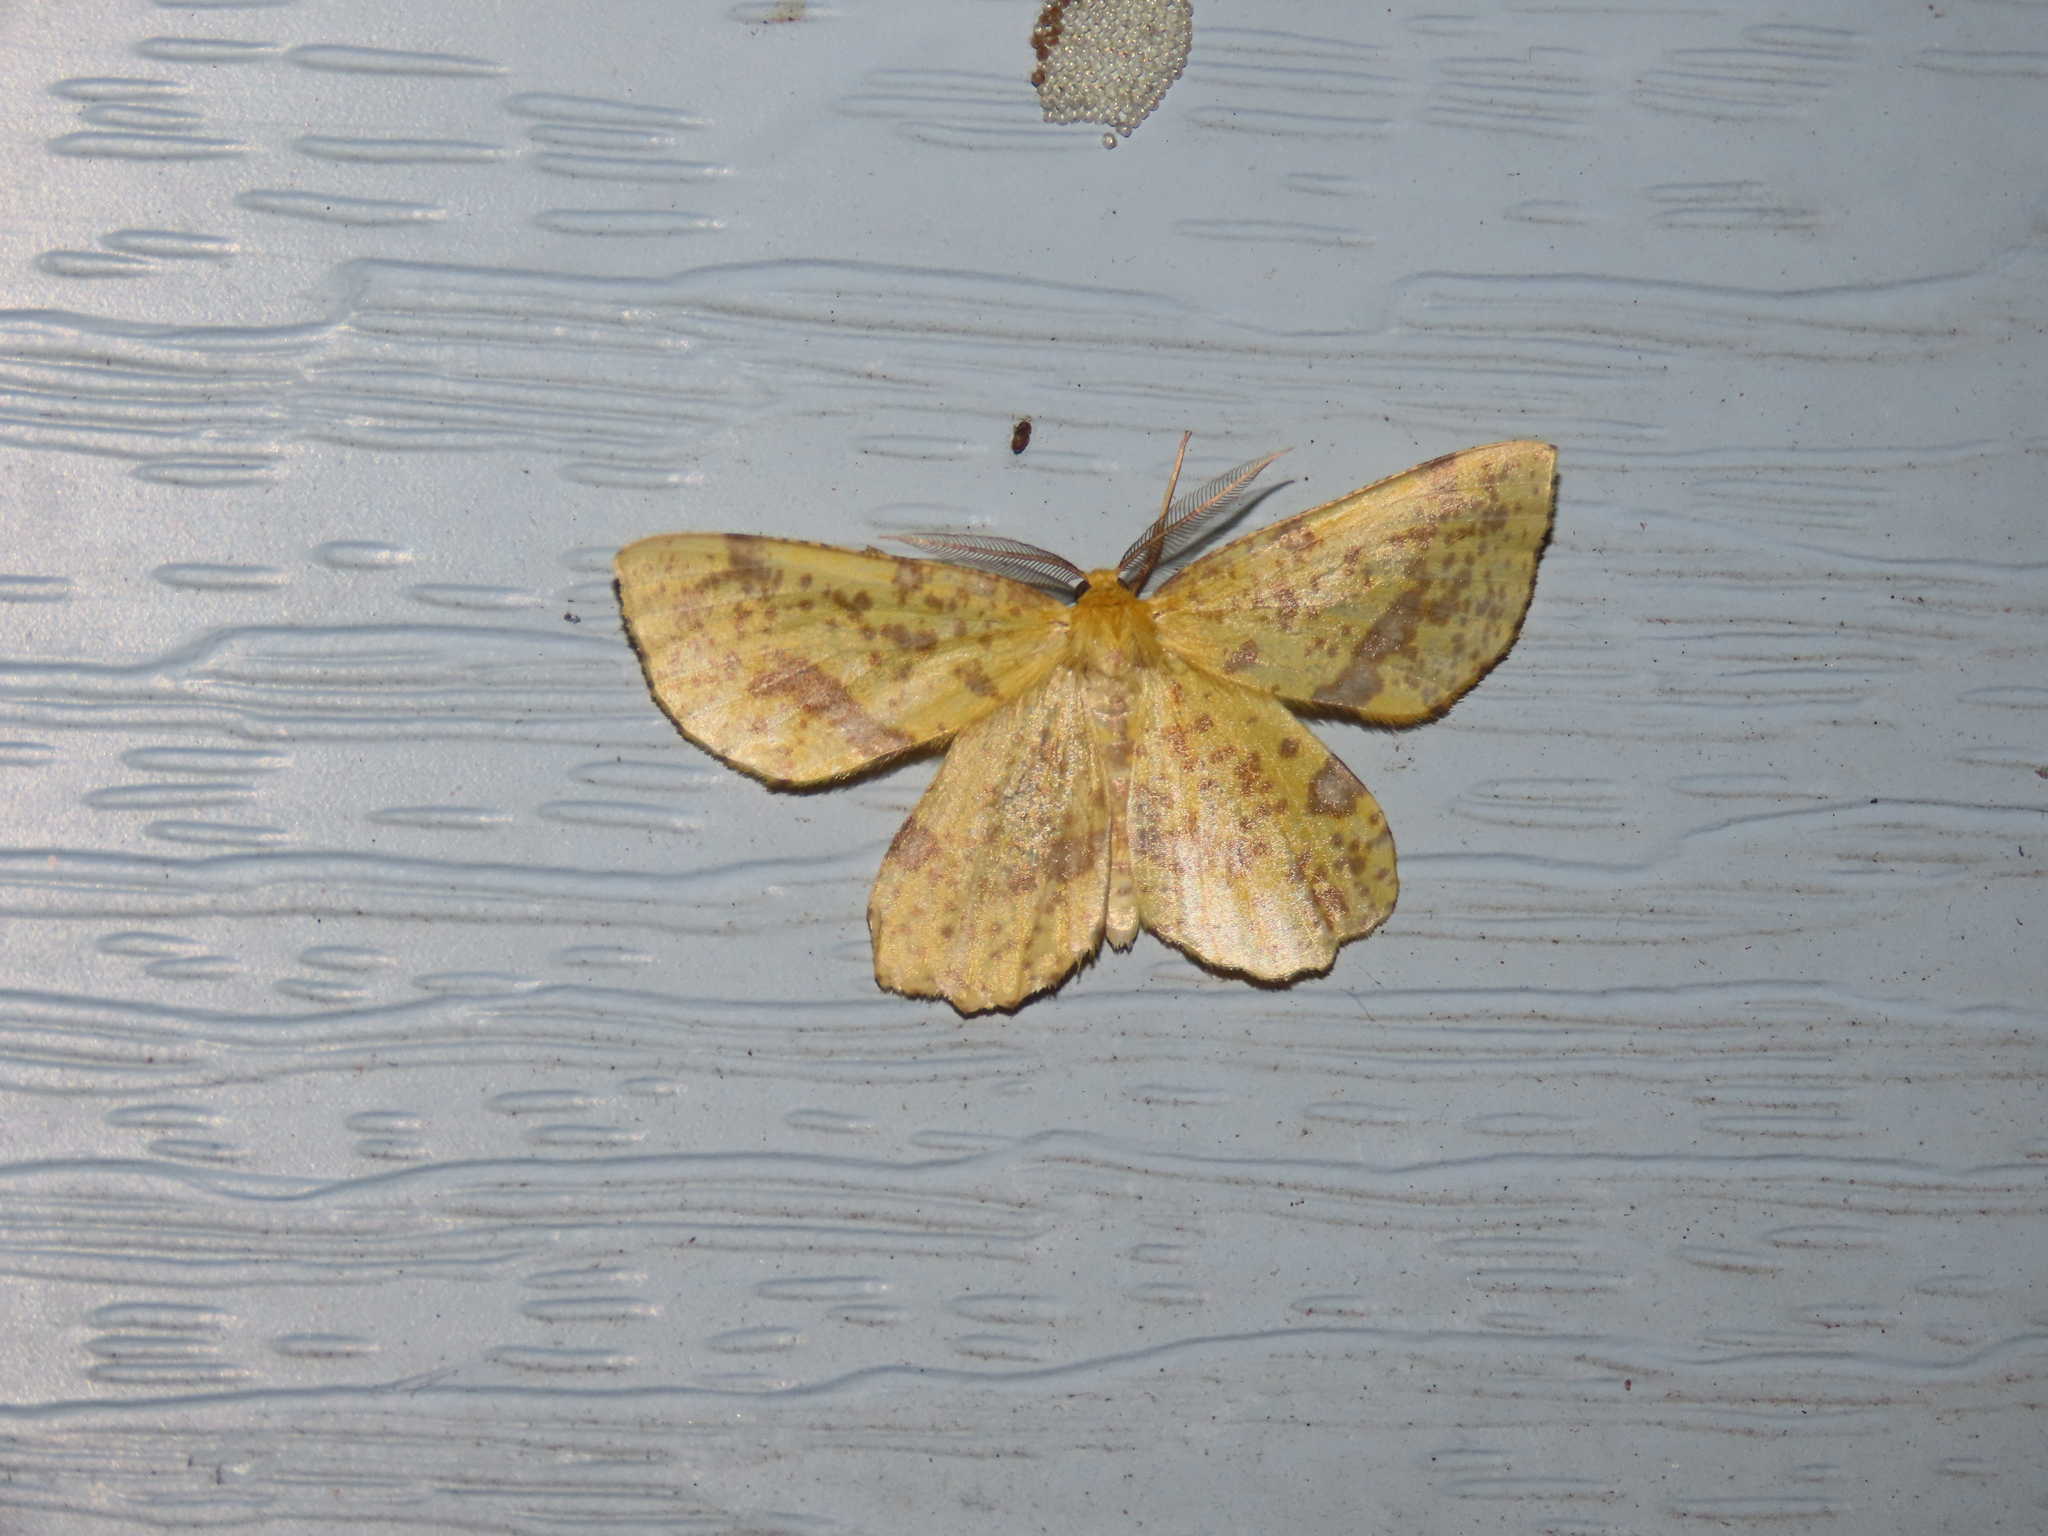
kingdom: Animalia
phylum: Arthropoda
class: Insecta
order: Lepidoptera
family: Geometridae
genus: Xanthotype
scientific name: Xanthotype
